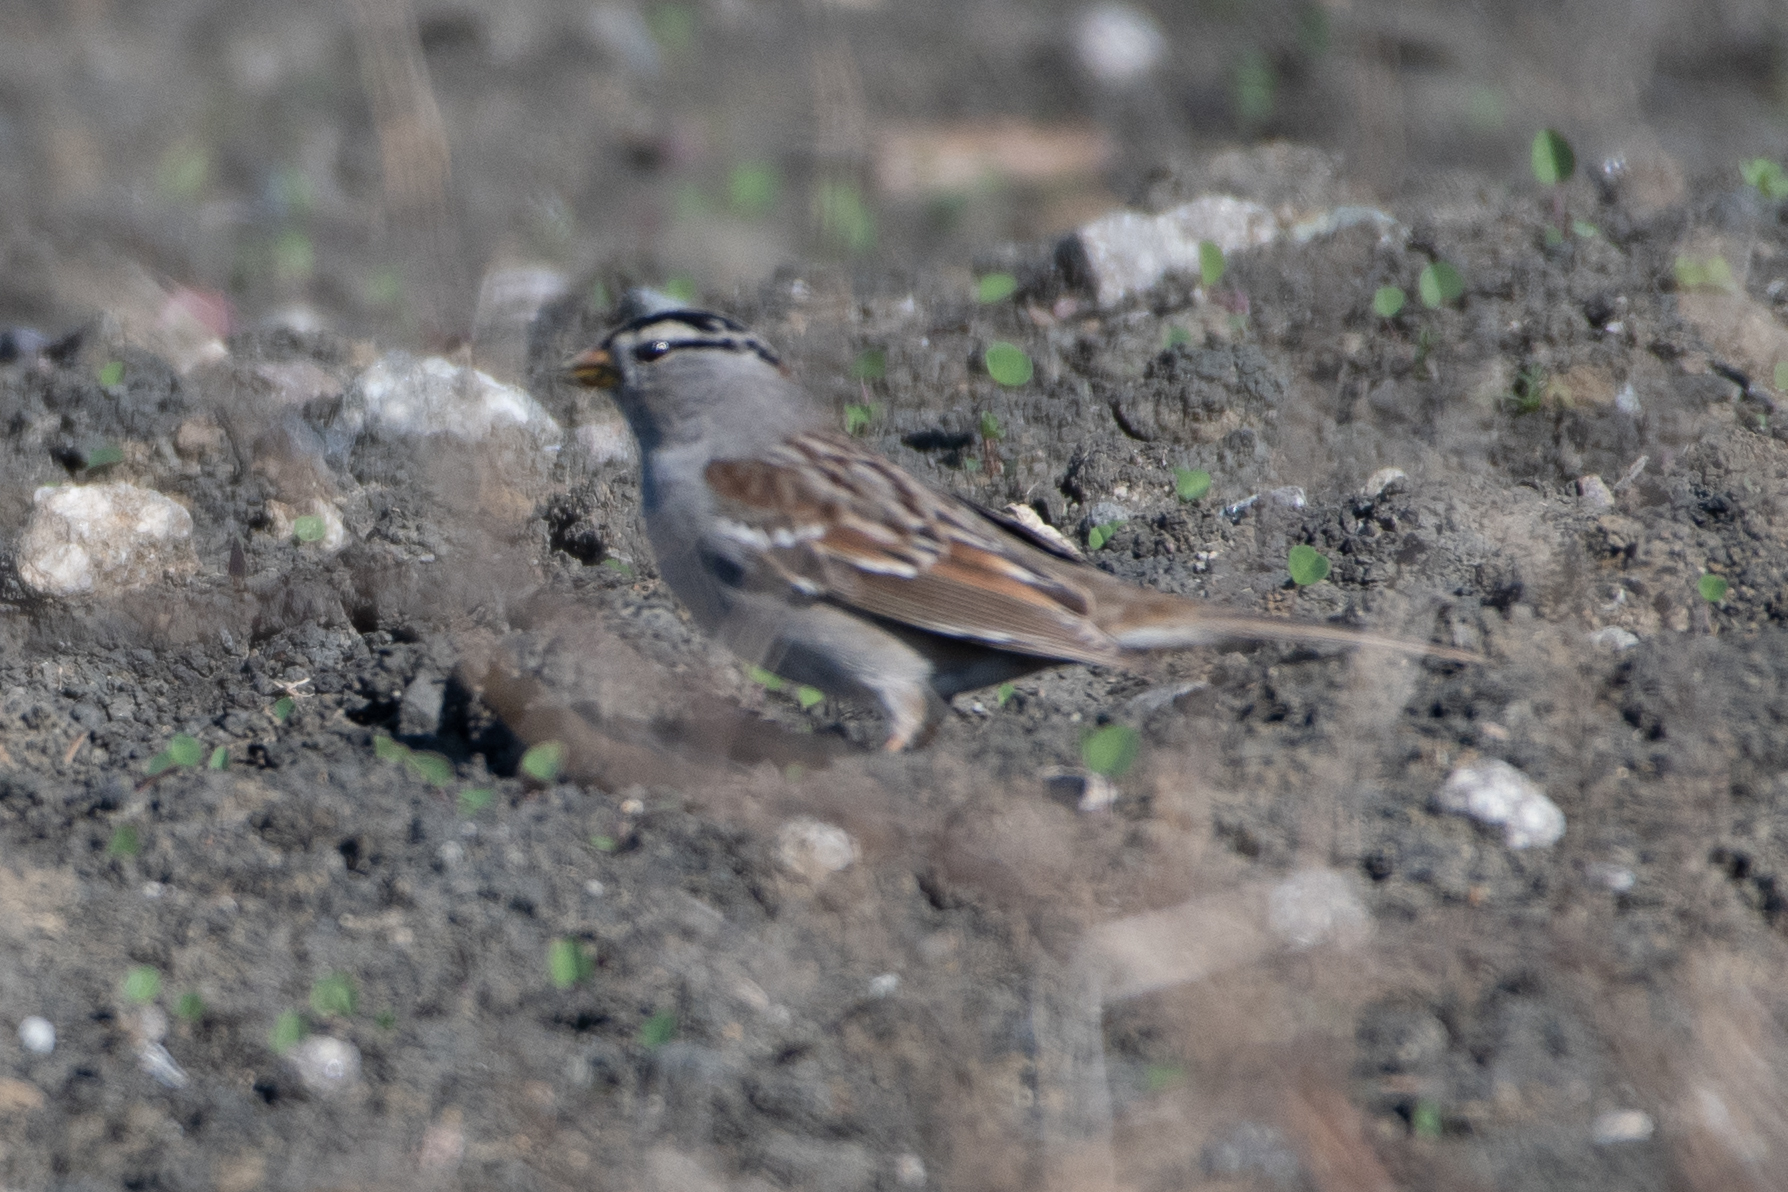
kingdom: Animalia
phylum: Chordata
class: Aves
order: Passeriformes
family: Passerellidae
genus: Zonotrichia
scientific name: Zonotrichia leucophrys
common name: White-crowned sparrow
